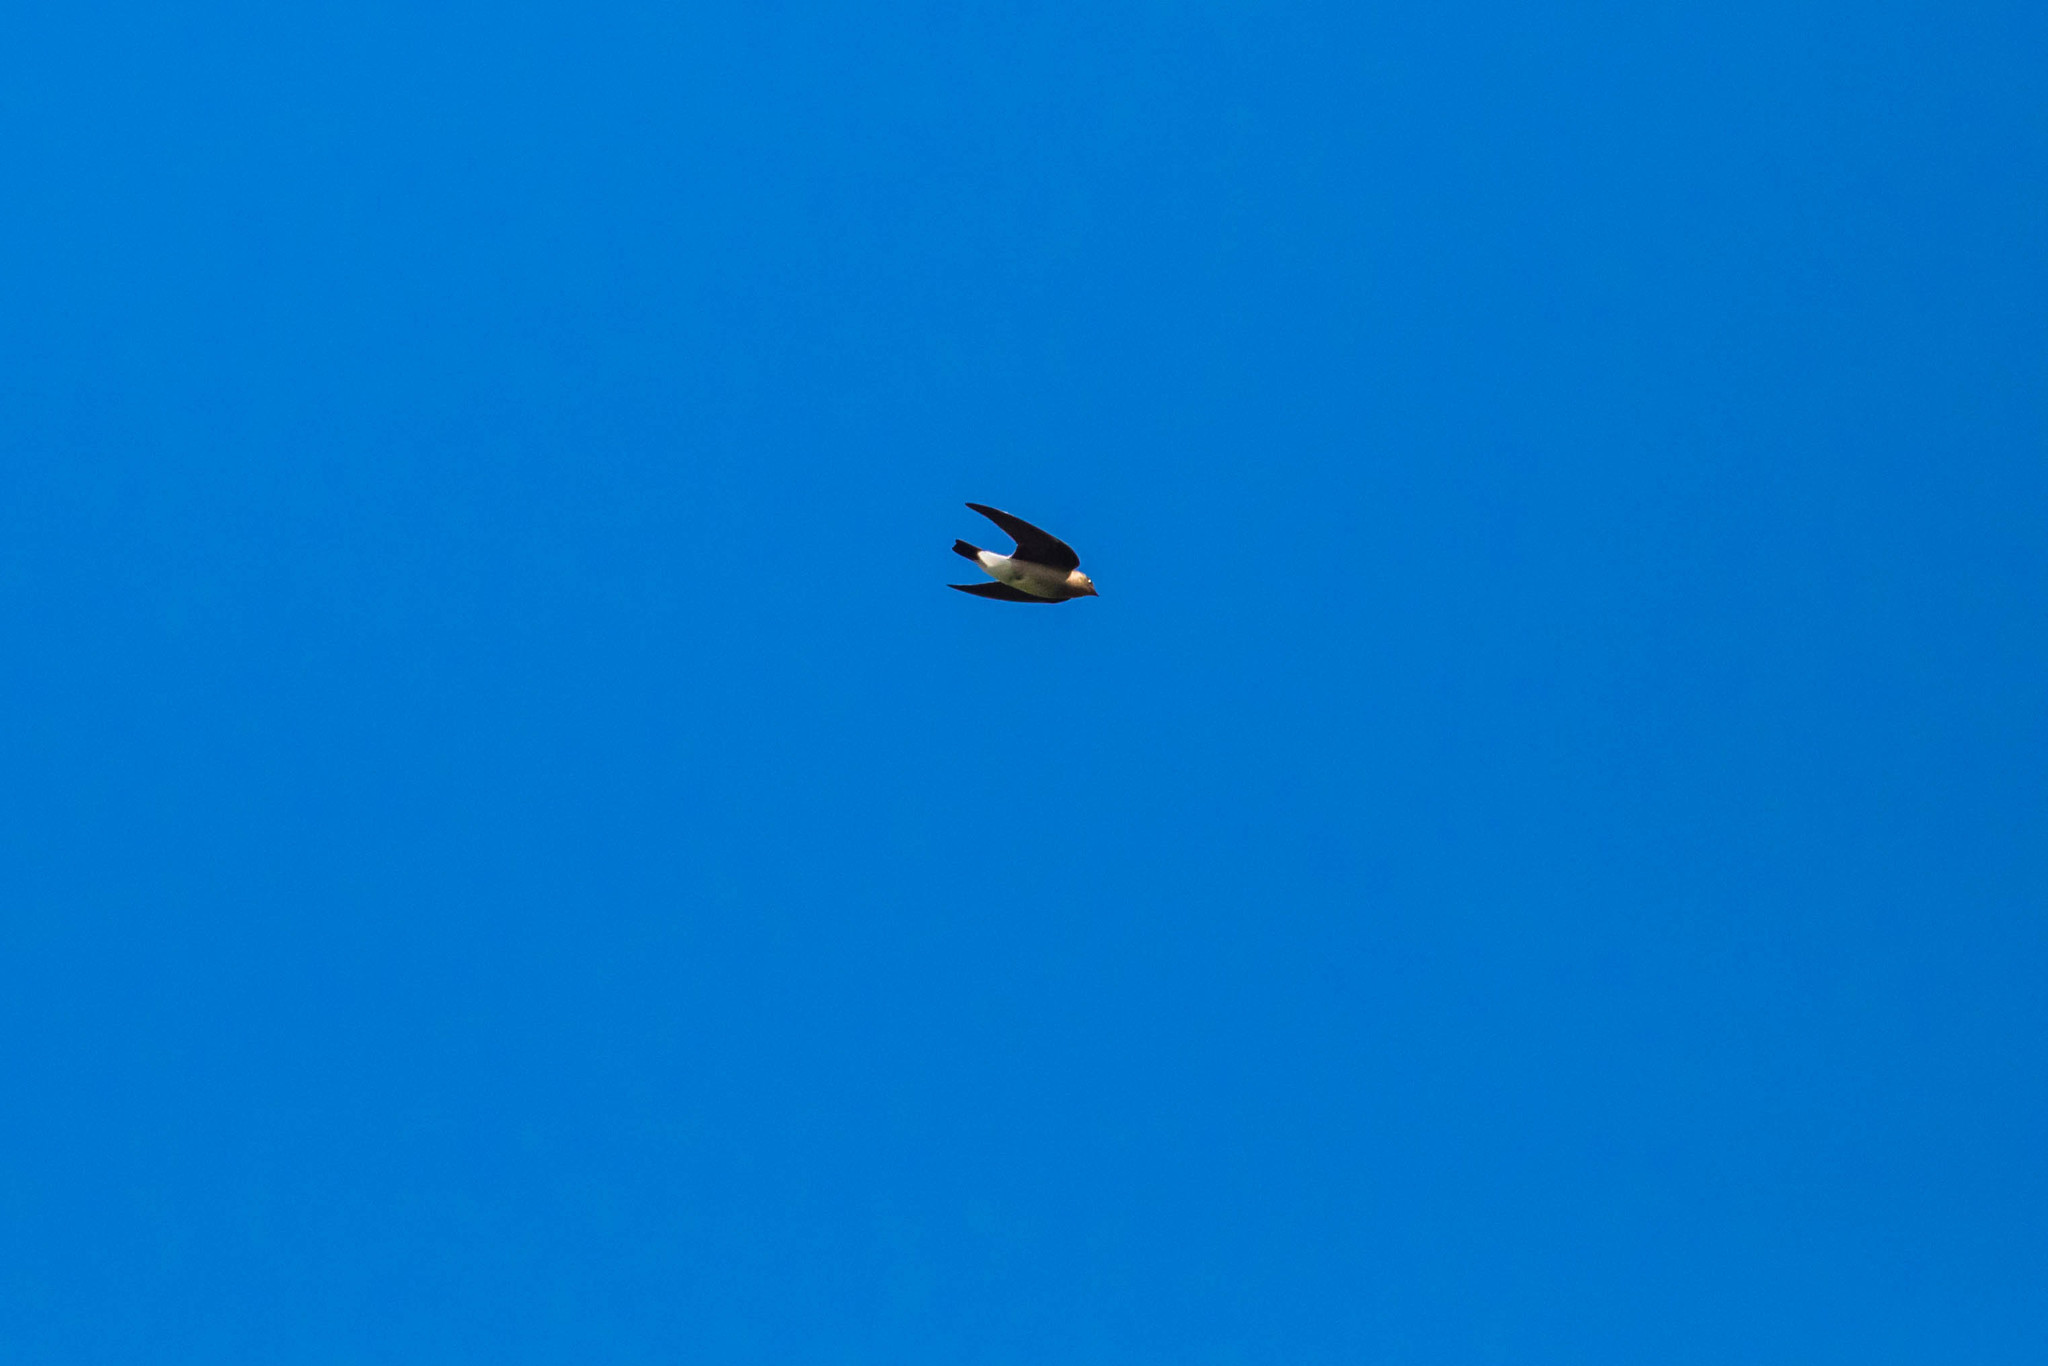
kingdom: Animalia
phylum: Chordata
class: Aves
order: Passeriformes
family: Hirundinidae
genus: Stelgidopteryx
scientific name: Stelgidopteryx ruficollis
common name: Southern rough-winged swallow
